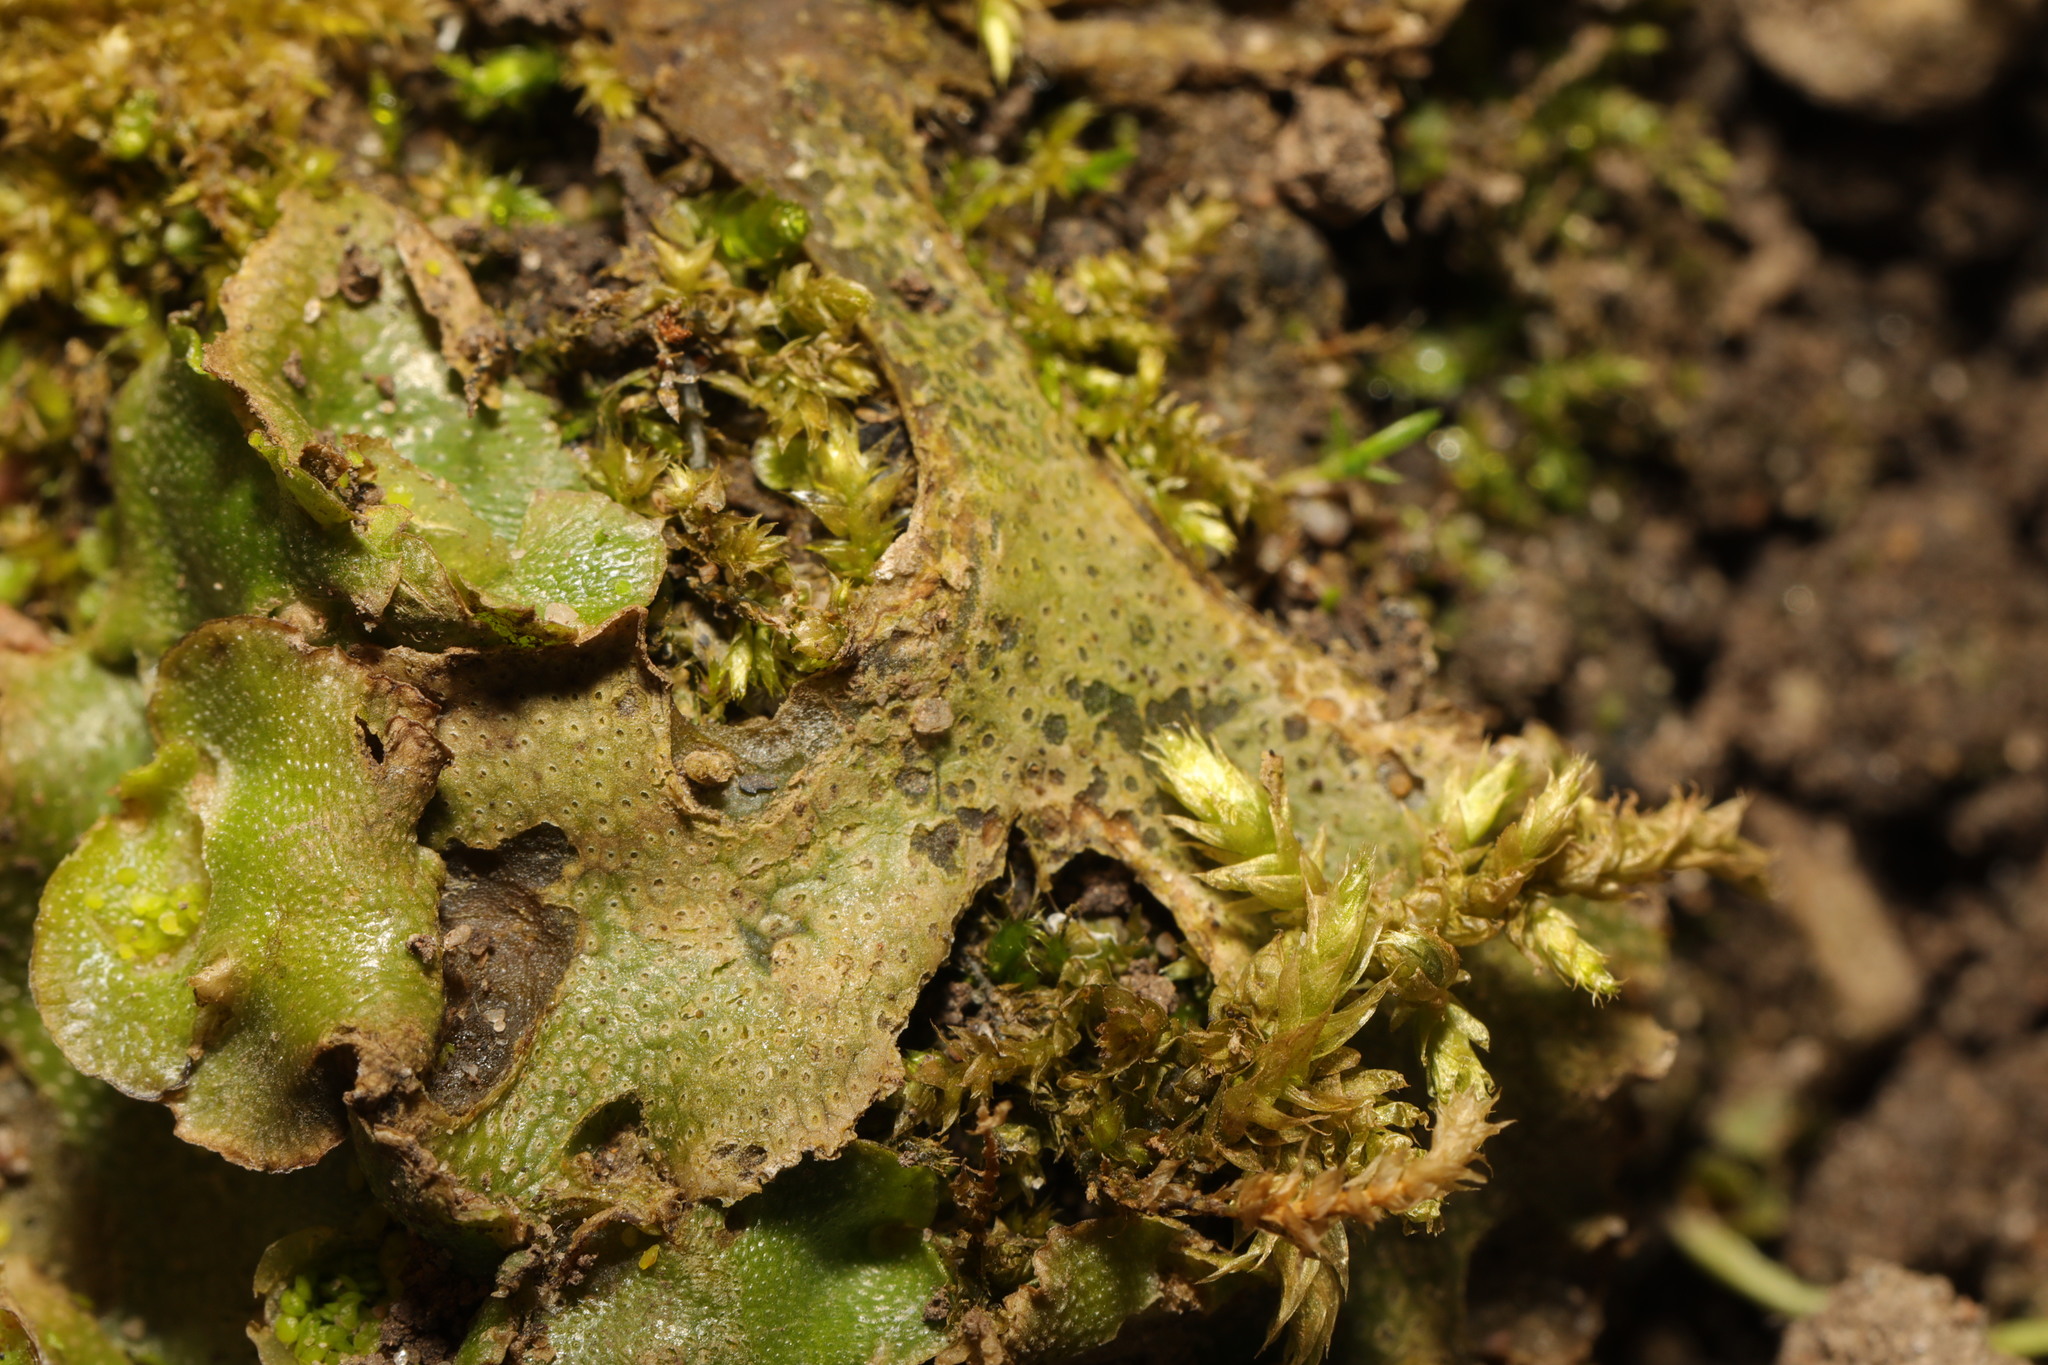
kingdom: Plantae
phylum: Marchantiophyta
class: Marchantiopsida
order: Lunulariales
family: Lunulariaceae
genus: Lunularia
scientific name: Lunularia cruciata
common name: Crescent-cup liverwort
